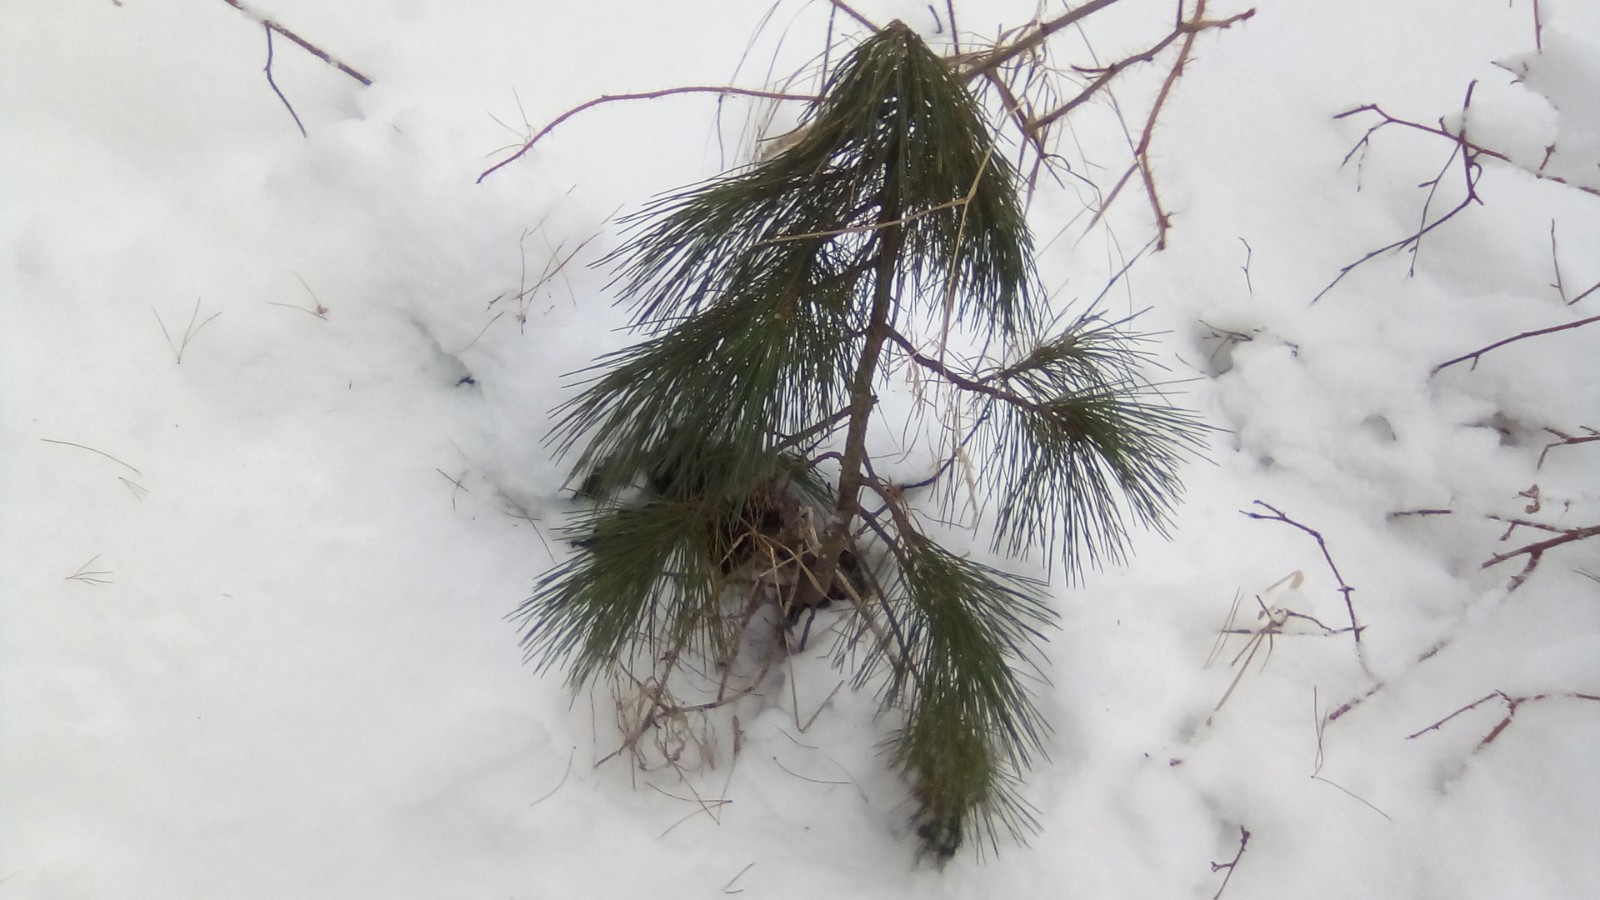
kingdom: Plantae
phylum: Tracheophyta
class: Pinopsida
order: Pinales
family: Pinaceae
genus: Pinus
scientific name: Pinus sibirica
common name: Siberian pine
